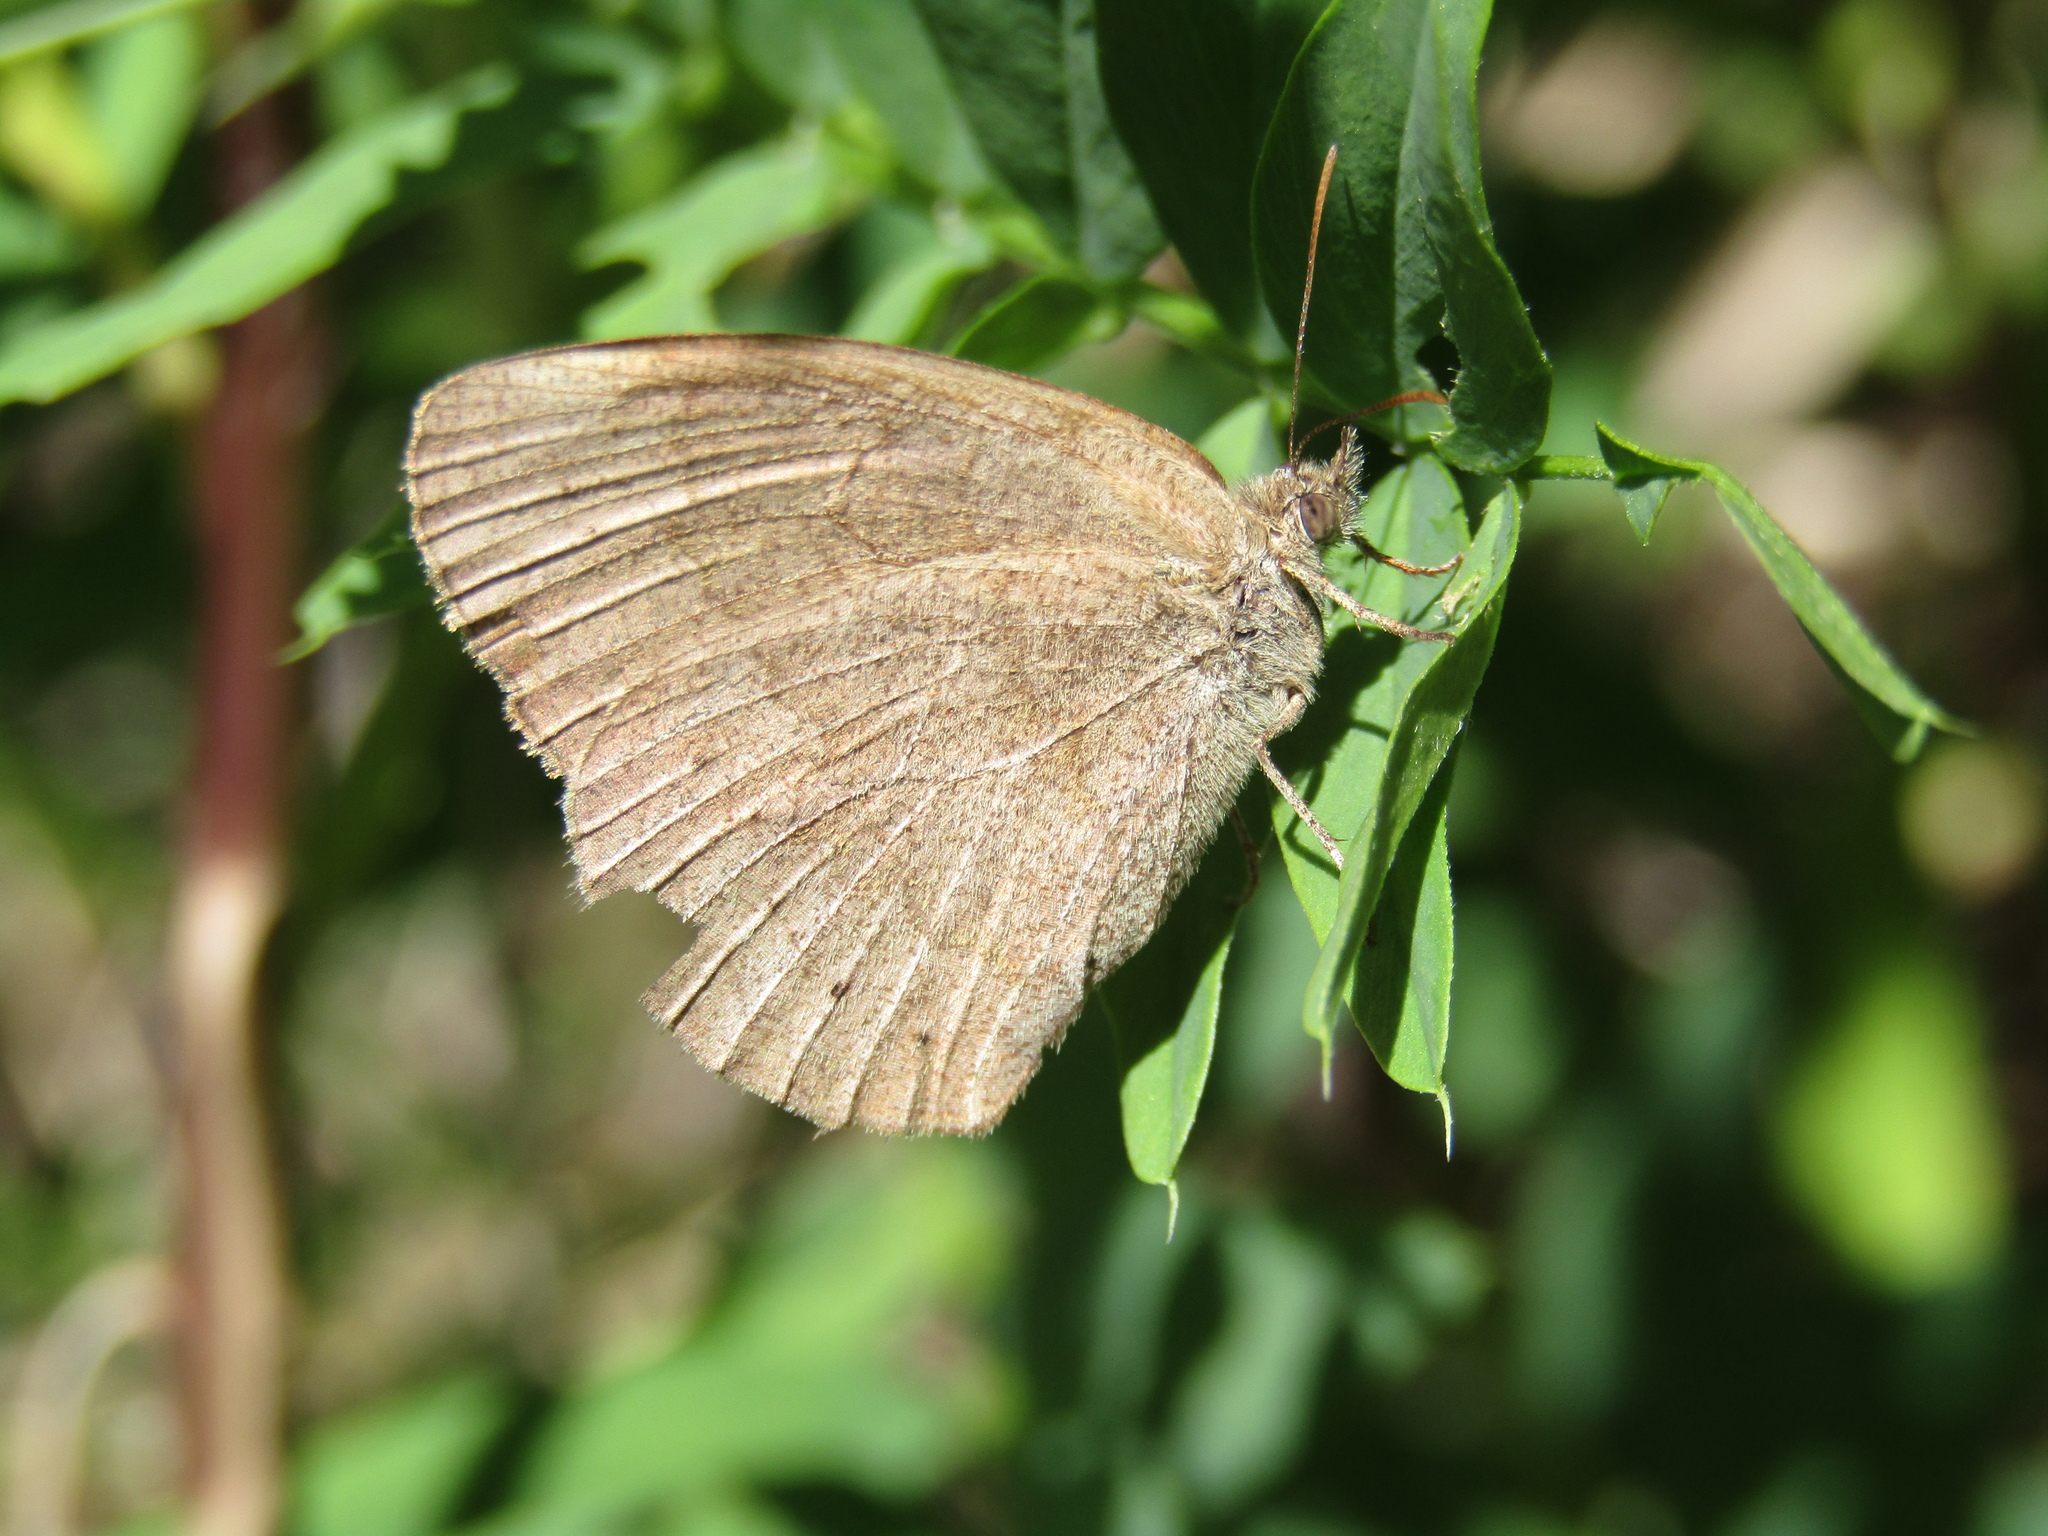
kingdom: Animalia
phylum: Arthropoda
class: Insecta
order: Lepidoptera
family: Nymphalidae
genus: Yphthimoides
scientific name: Yphthimoides celmis
